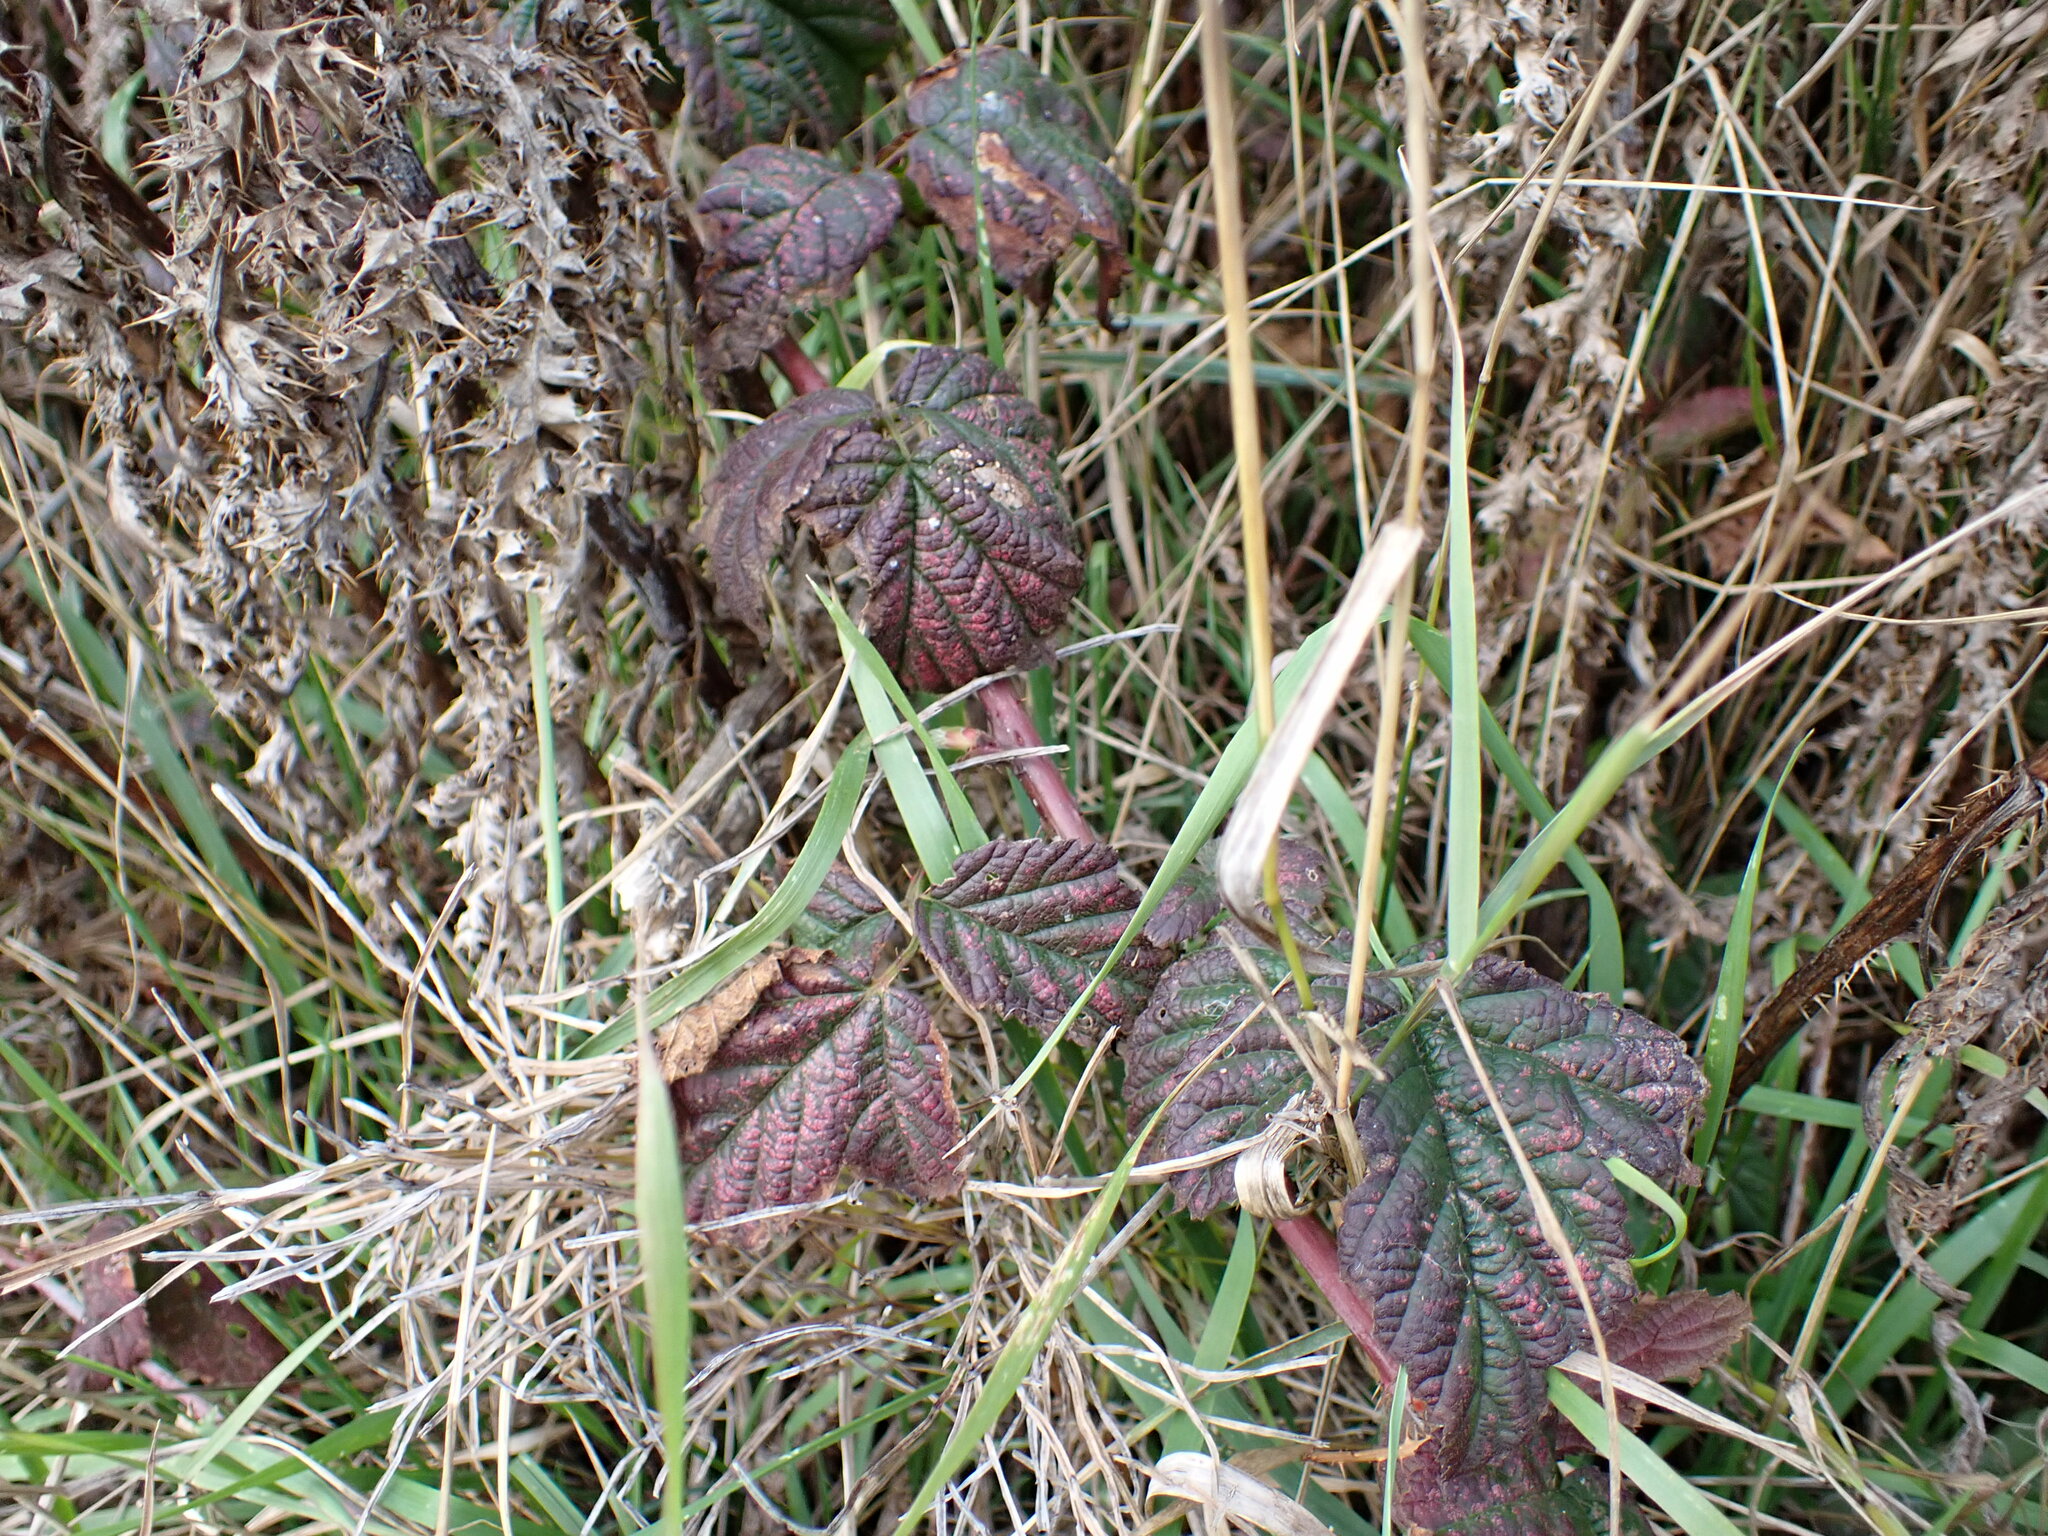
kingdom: Plantae
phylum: Tracheophyta
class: Magnoliopsida
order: Rosales
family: Rosaceae
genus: Rubus
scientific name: Rubus ursinus
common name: Pacific blackberry
